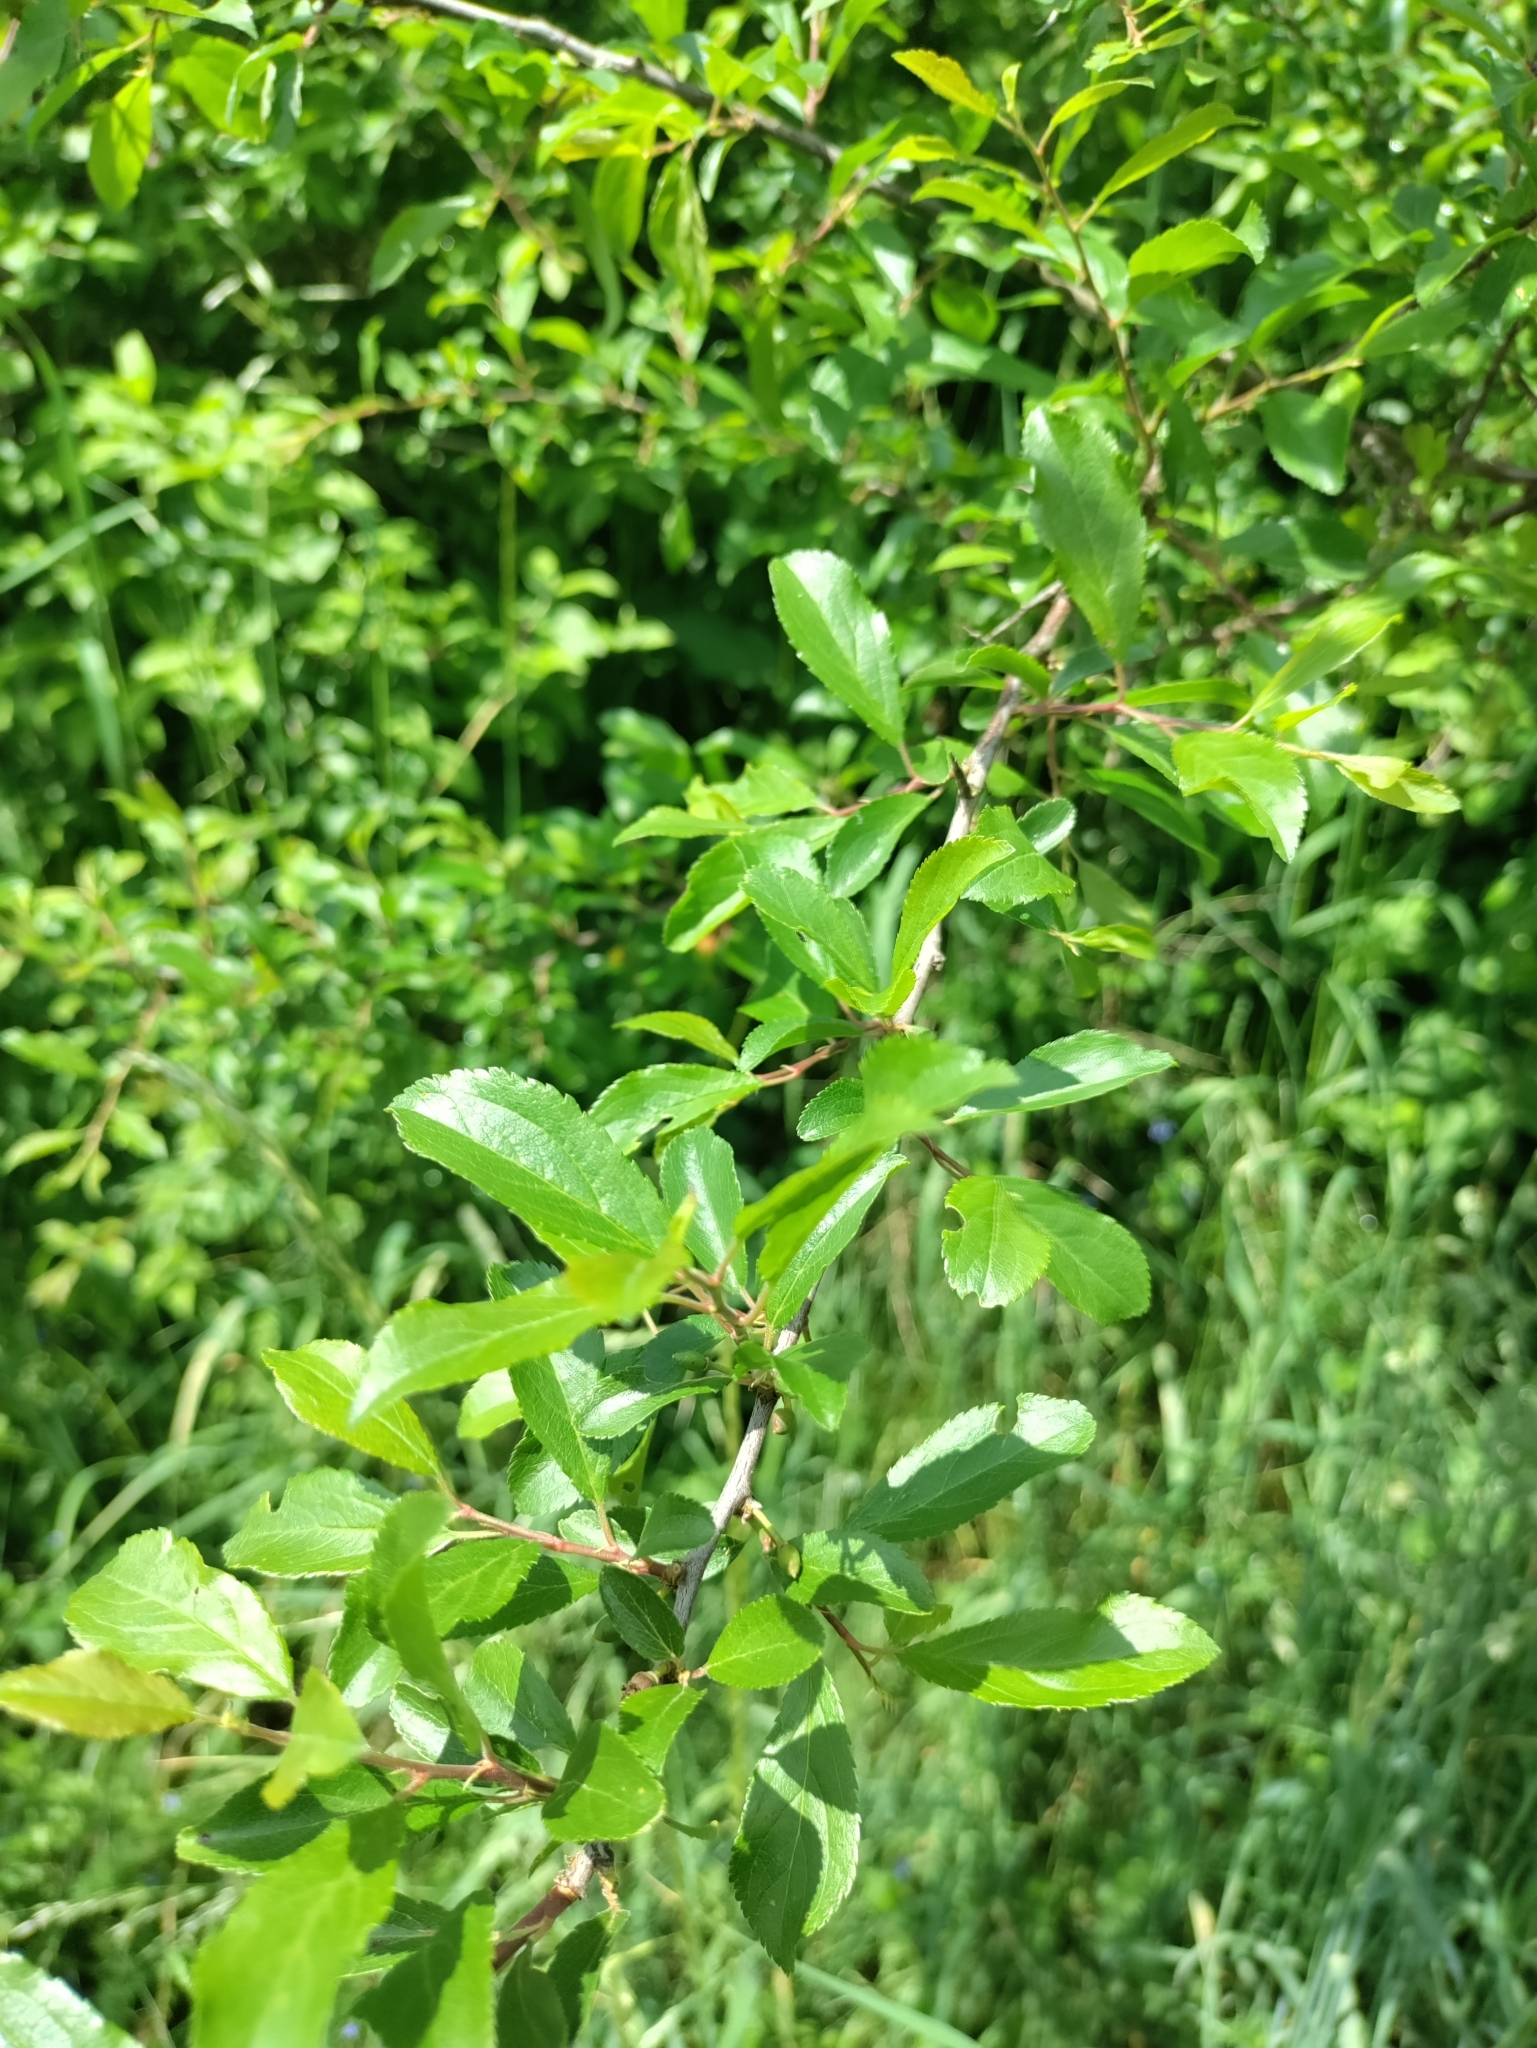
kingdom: Plantae
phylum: Tracheophyta
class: Magnoliopsida
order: Rosales
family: Rosaceae
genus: Prunus
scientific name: Prunus spinosa
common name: Blackthorn
